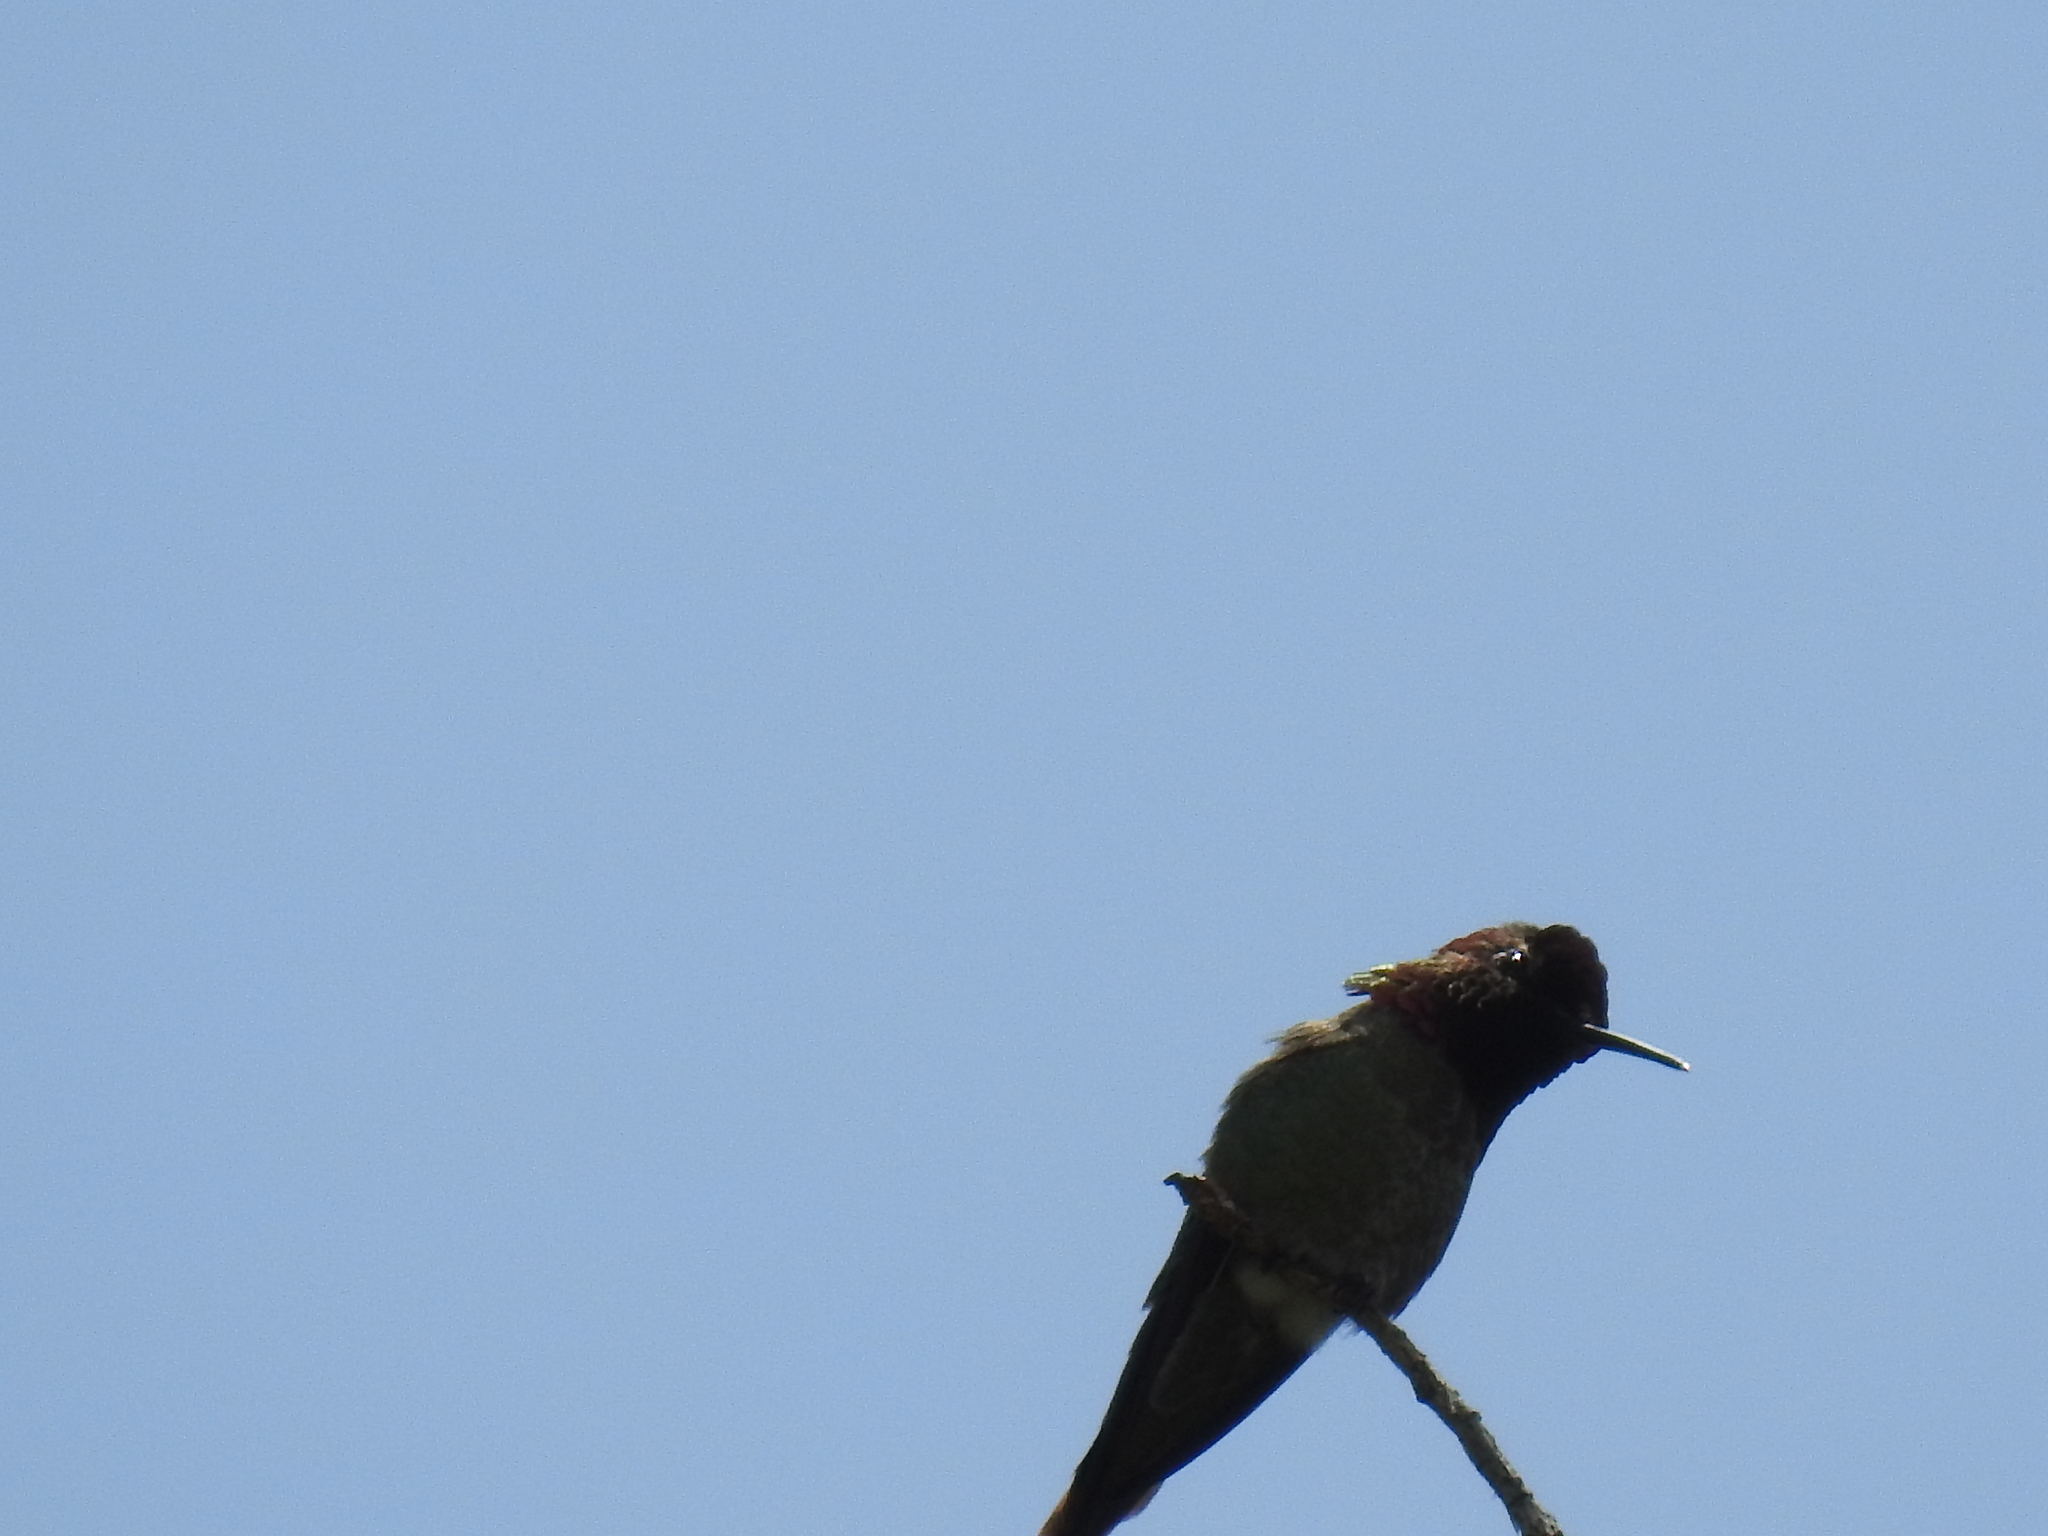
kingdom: Animalia
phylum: Chordata
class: Aves
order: Apodiformes
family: Trochilidae
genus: Calypte
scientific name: Calypte anna
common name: Anna's hummingbird
